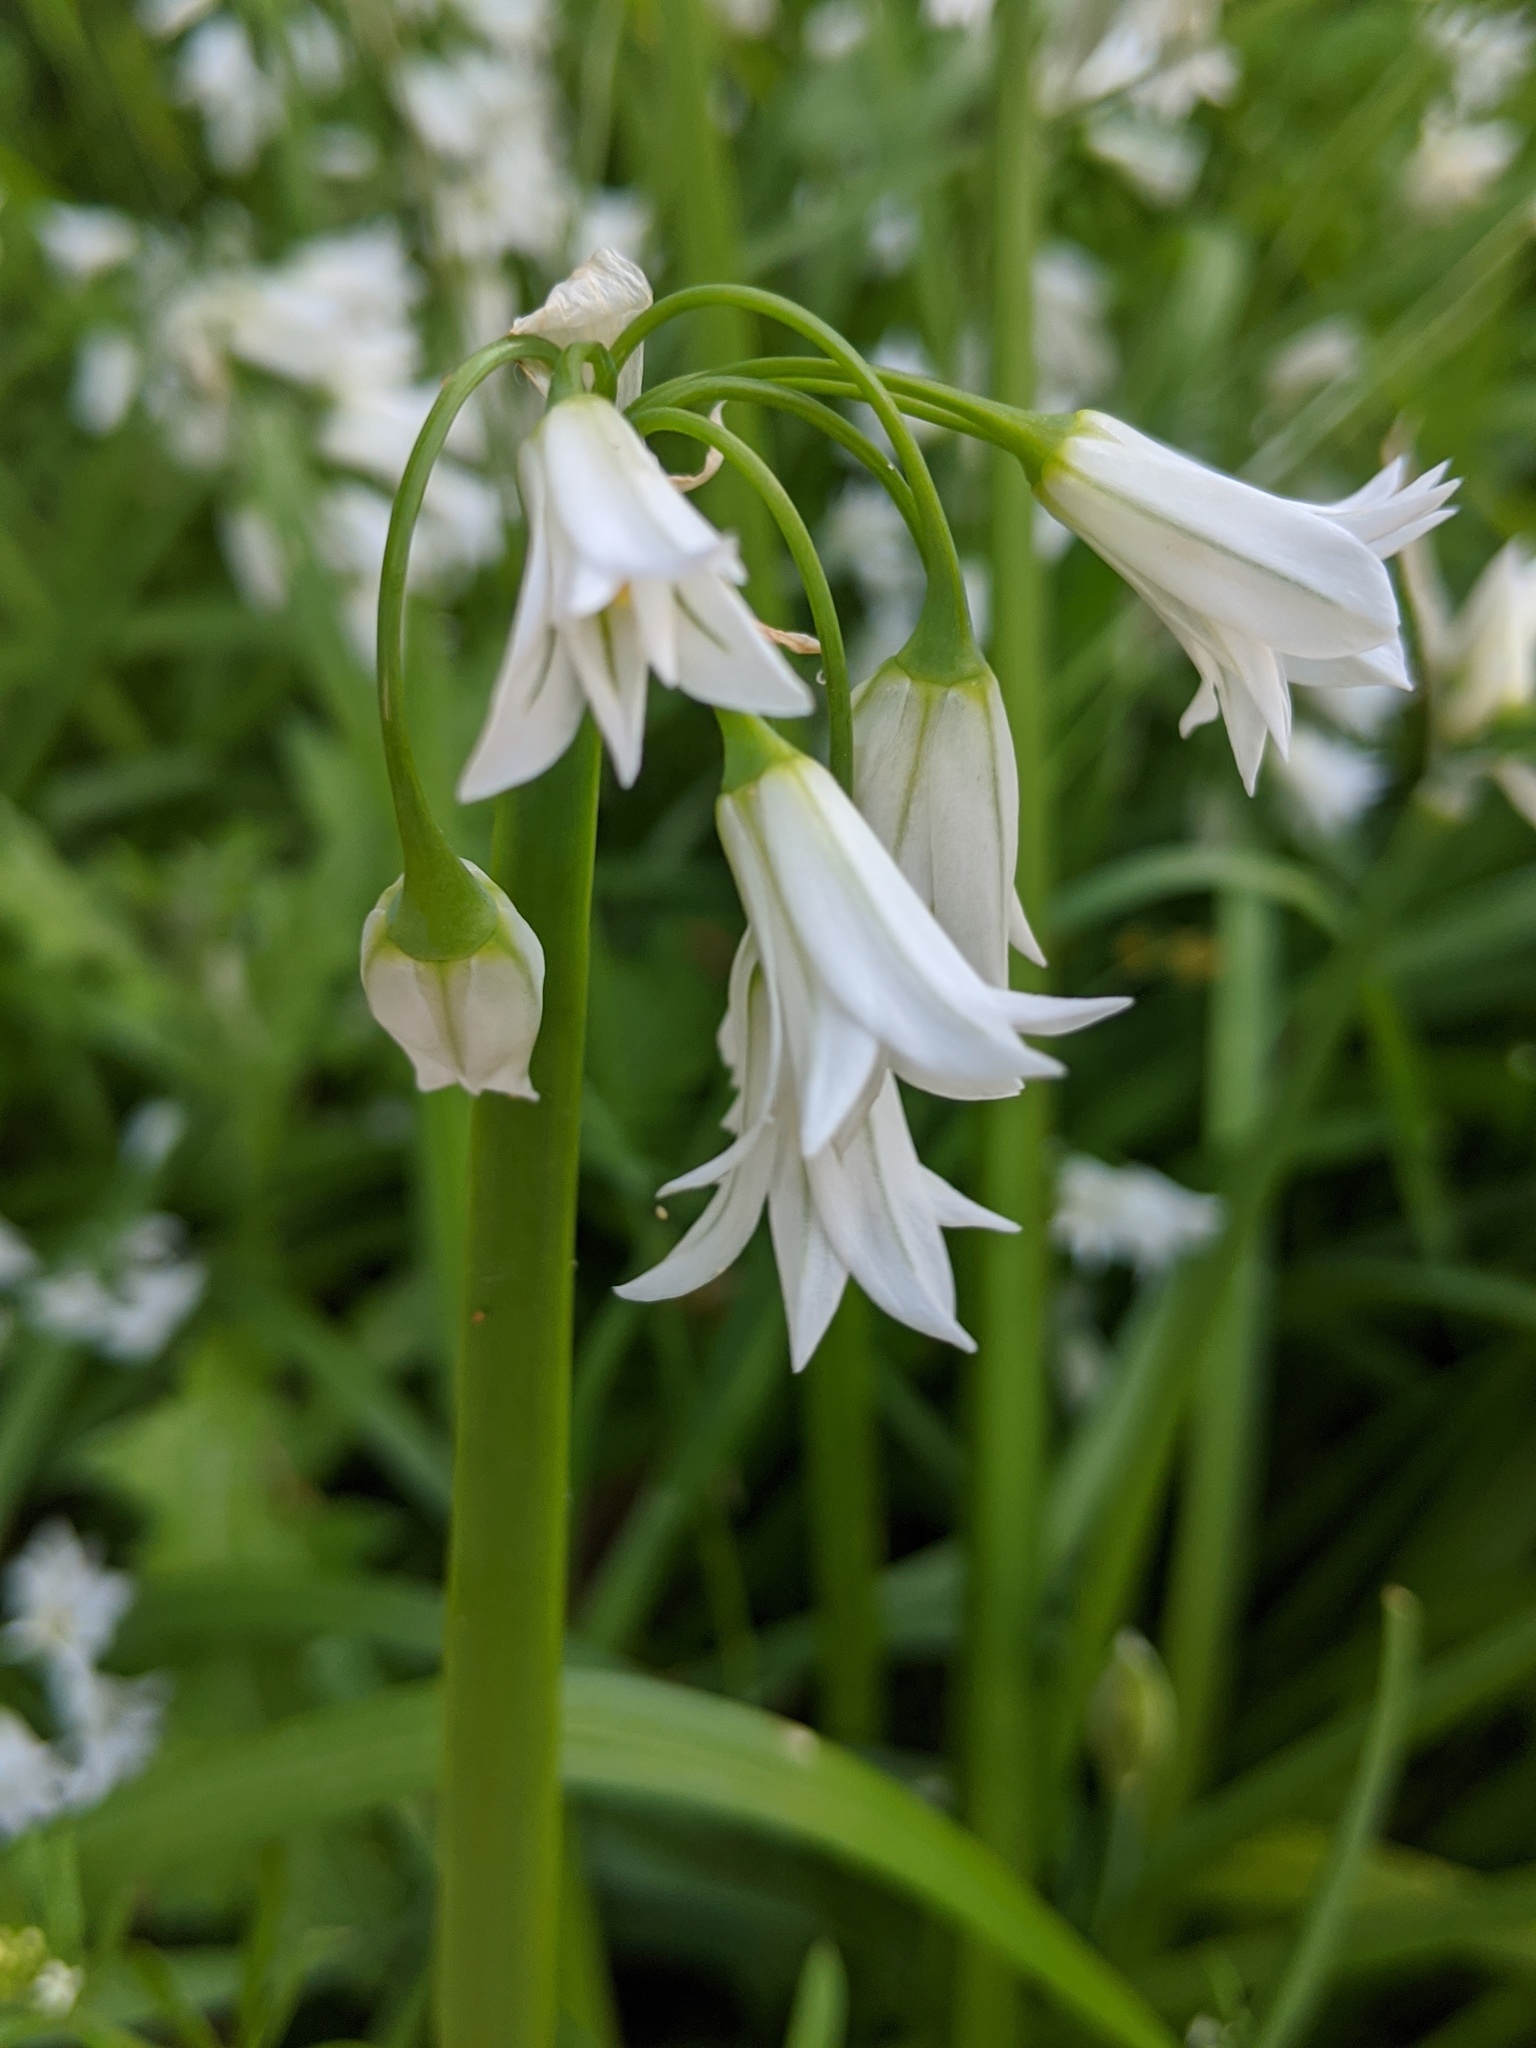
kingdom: Plantae
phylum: Tracheophyta
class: Liliopsida
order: Asparagales
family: Amaryllidaceae
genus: Allium
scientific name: Allium triquetrum
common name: Three-cornered garlic
